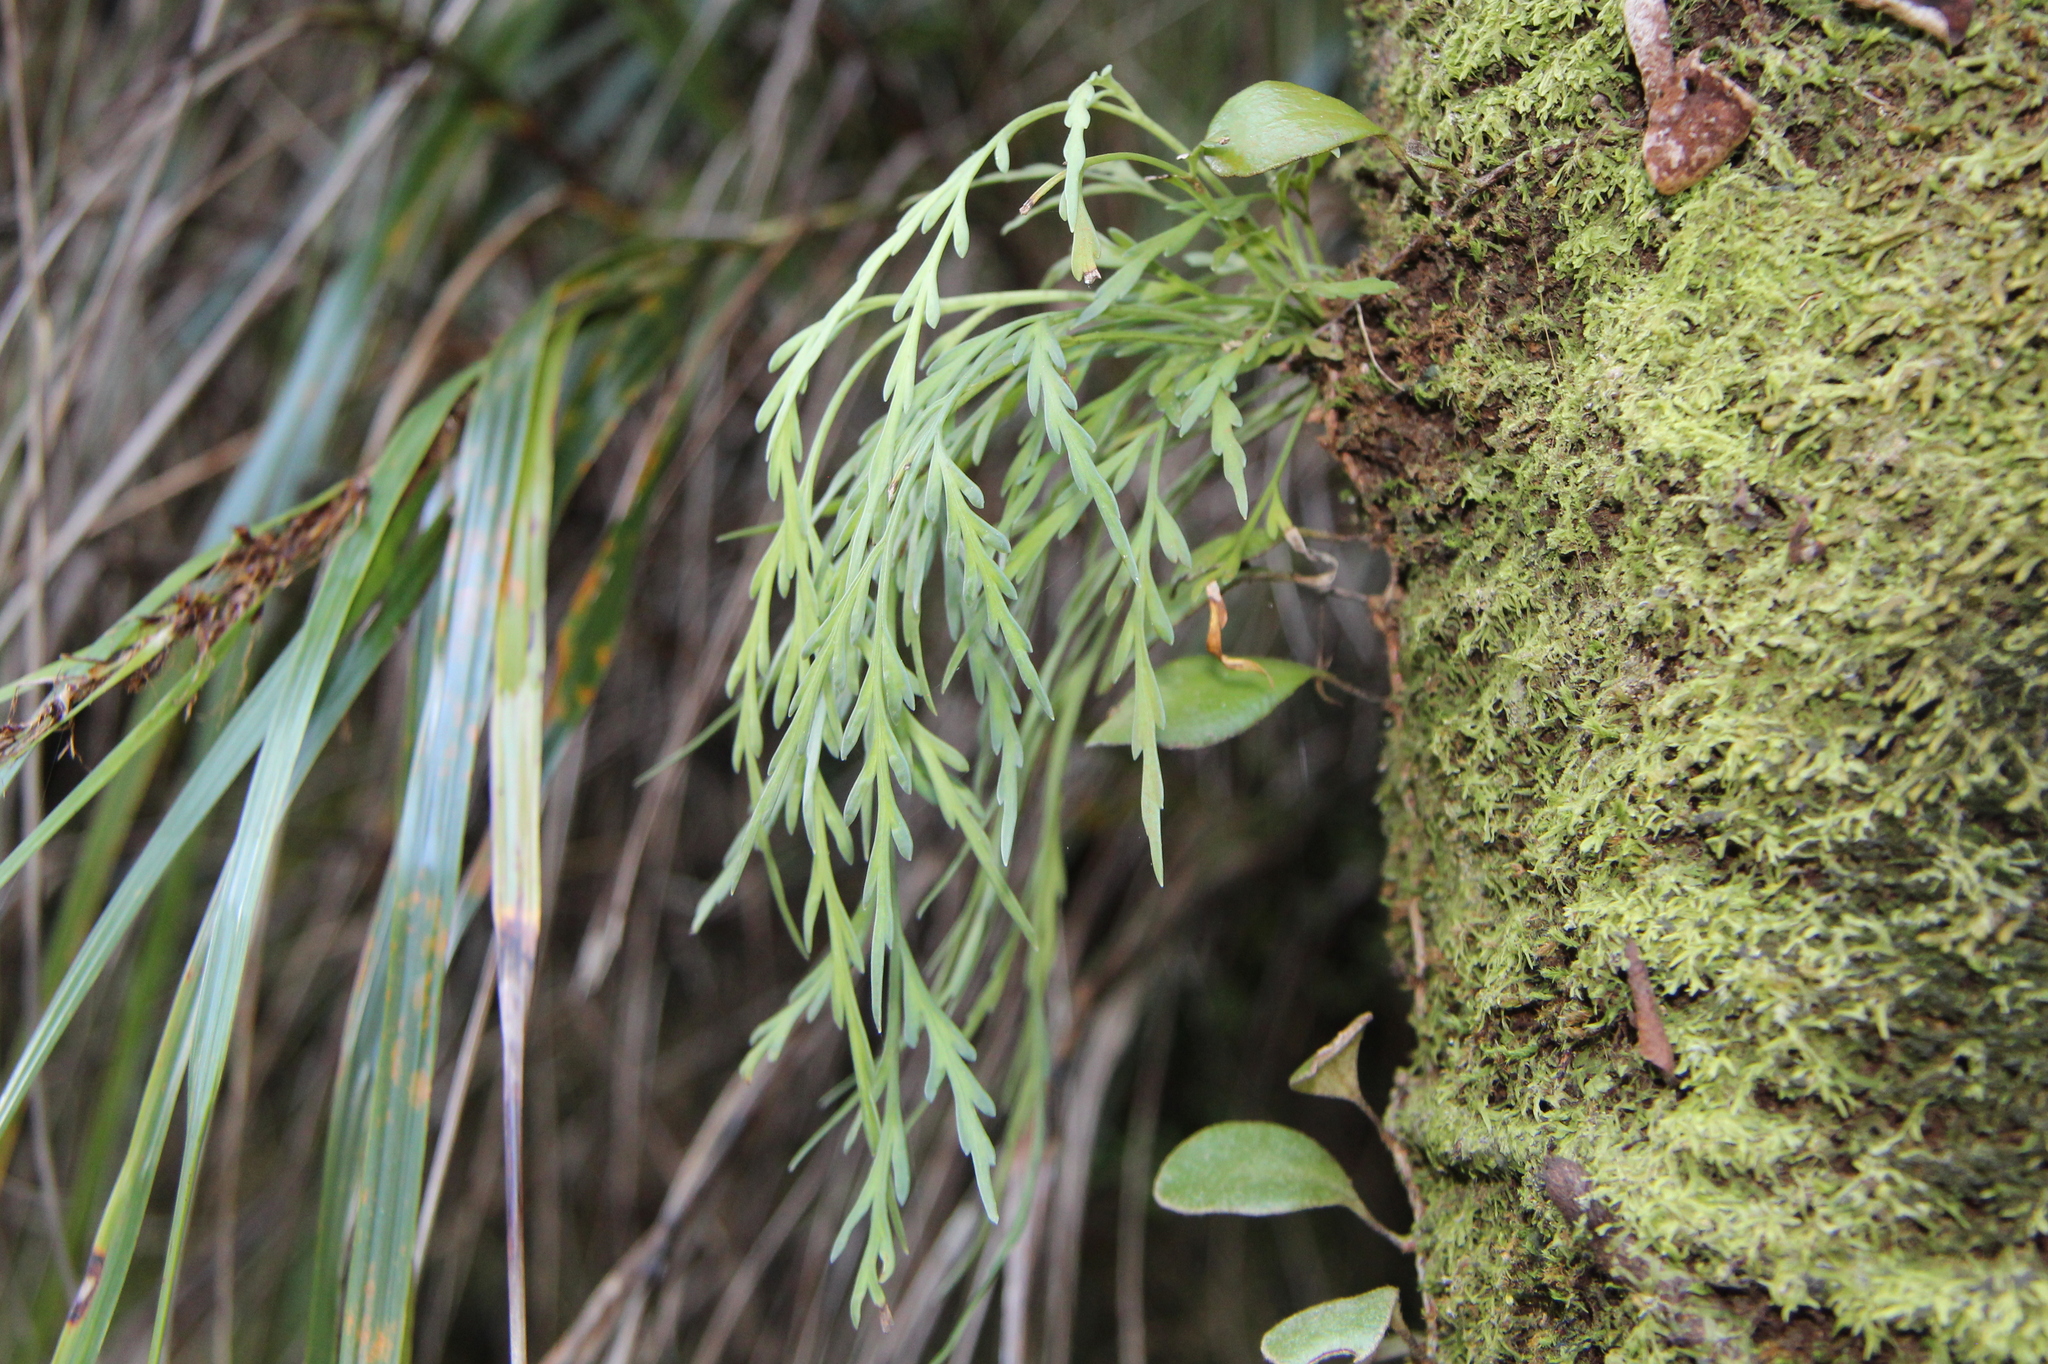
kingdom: Plantae
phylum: Tracheophyta
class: Polypodiopsida
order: Polypodiales
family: Aspleniaceae
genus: Asplenium
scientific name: Asplenium flaccidum
